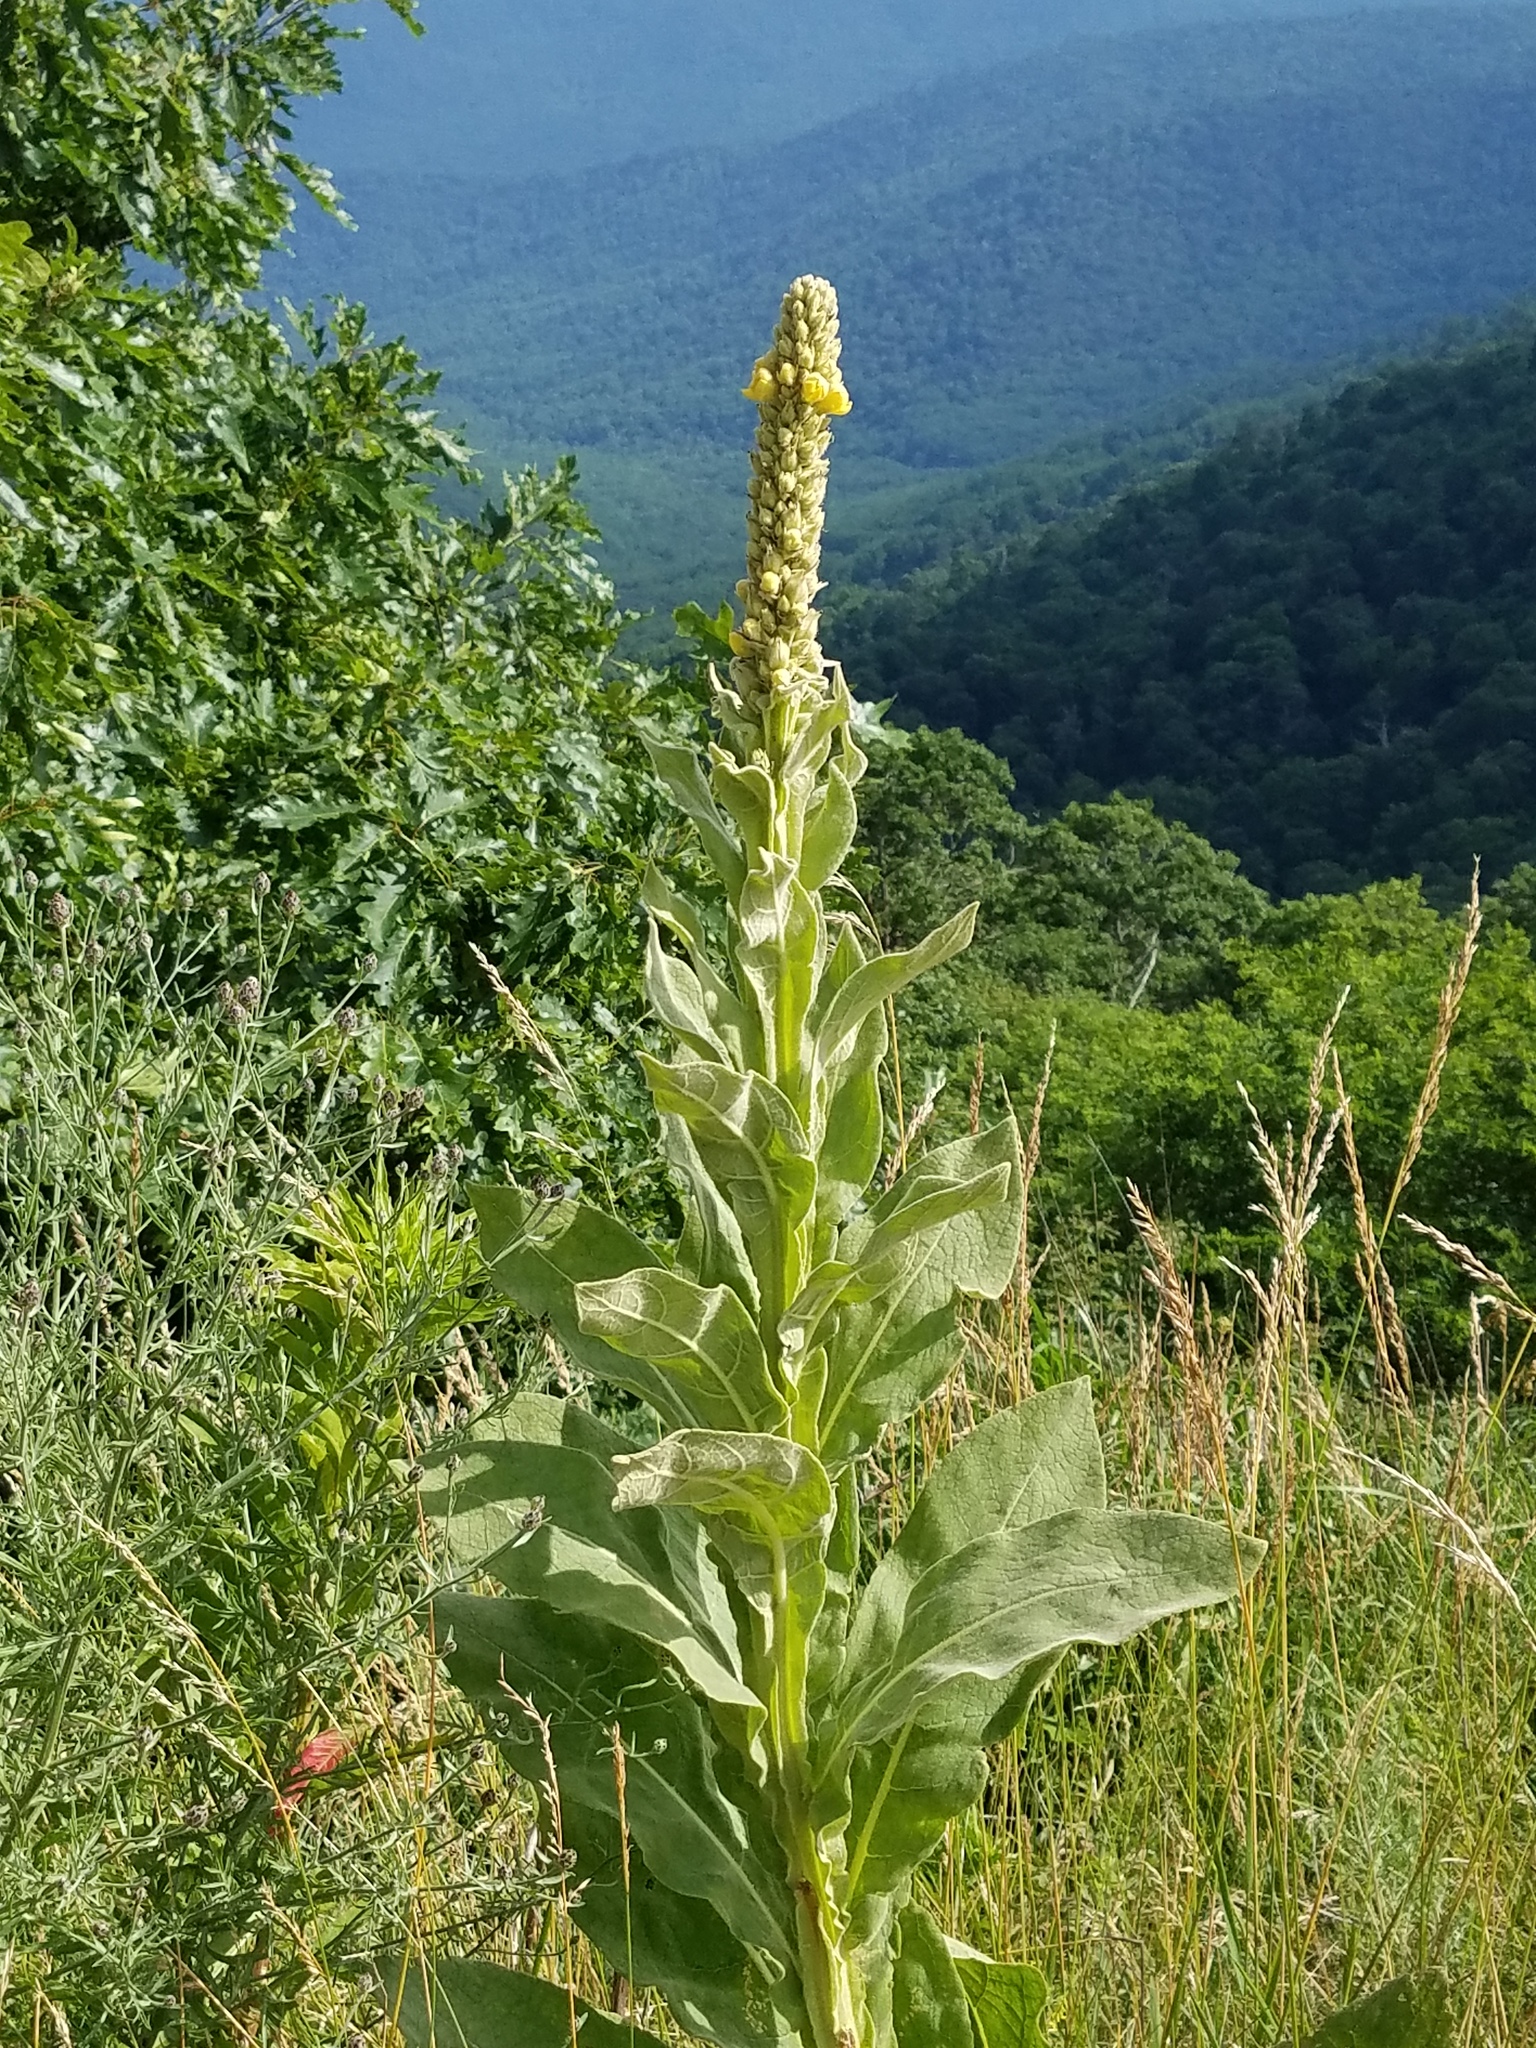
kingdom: Plantae
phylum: Tracheophyta
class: Magnoliopsida
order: Lamiales
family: Scrophulariaceae
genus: Verbascum
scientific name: Verbascum thapsus
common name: Common mullein
